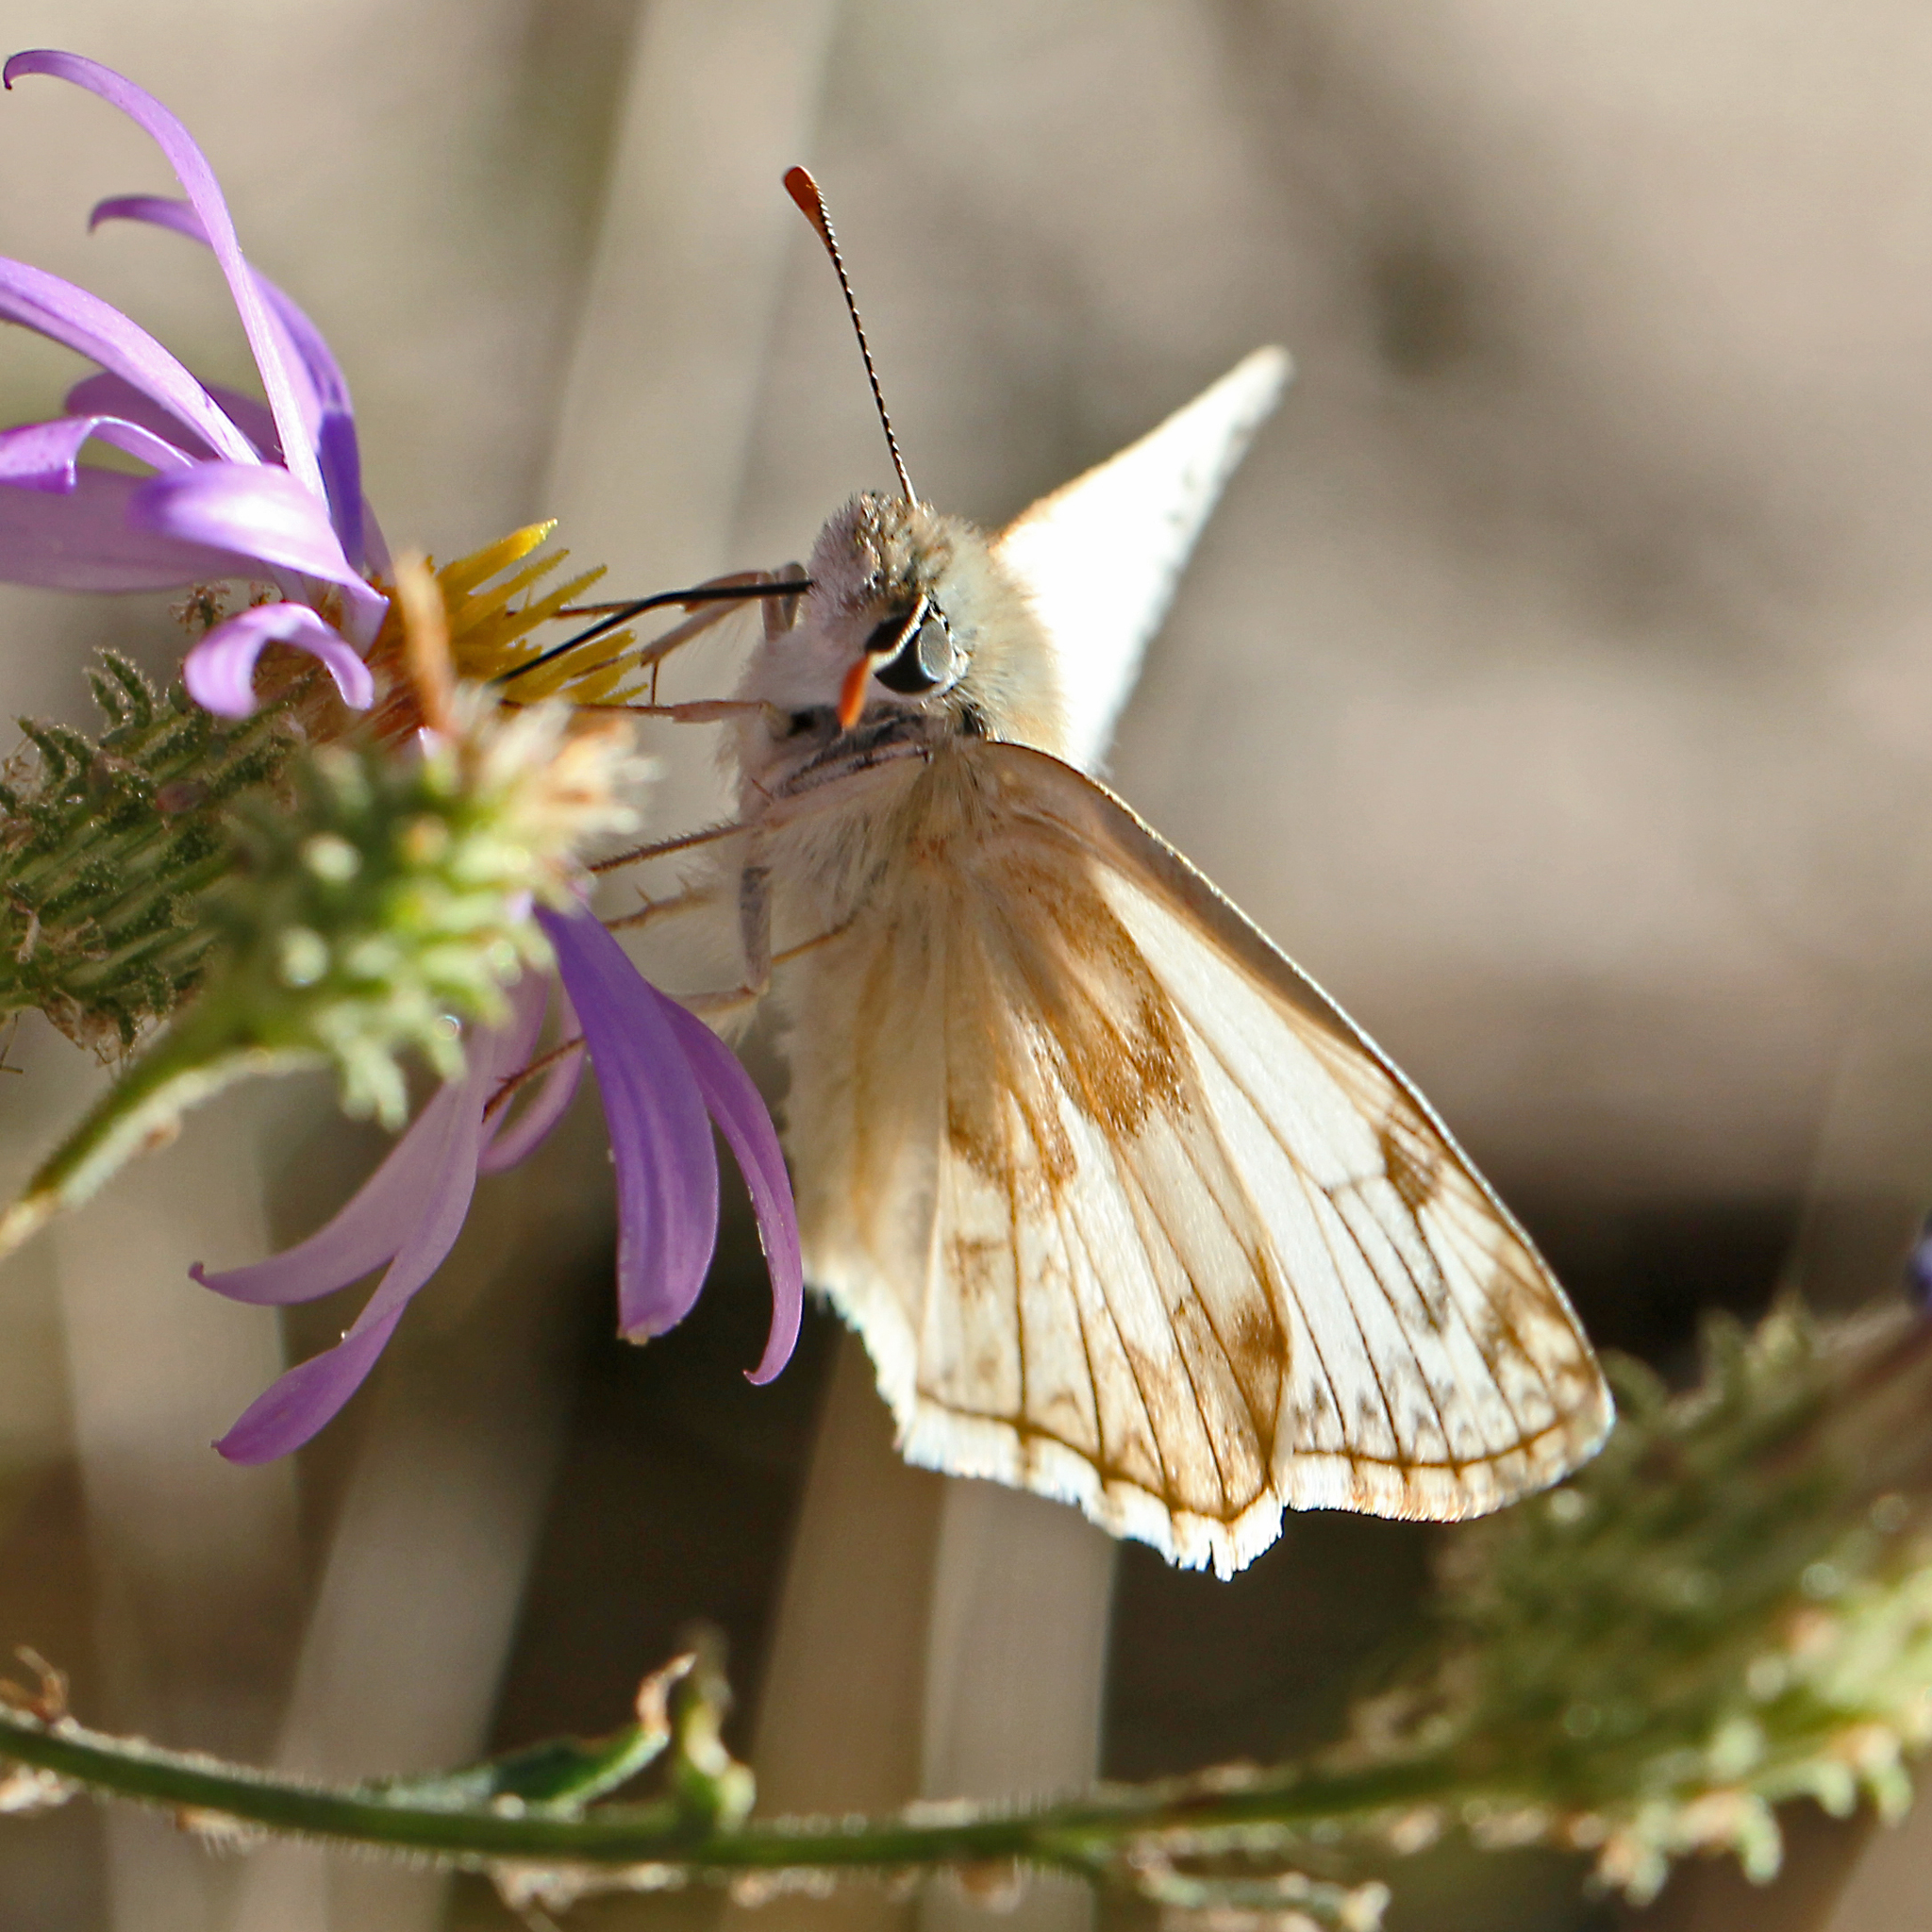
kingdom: Animalia
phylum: Arthropoda
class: Insecta
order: Lepidoptera
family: Hesperiidae
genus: Heliopetes
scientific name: Heliopetes ericetorum
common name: Northern white-skipper
